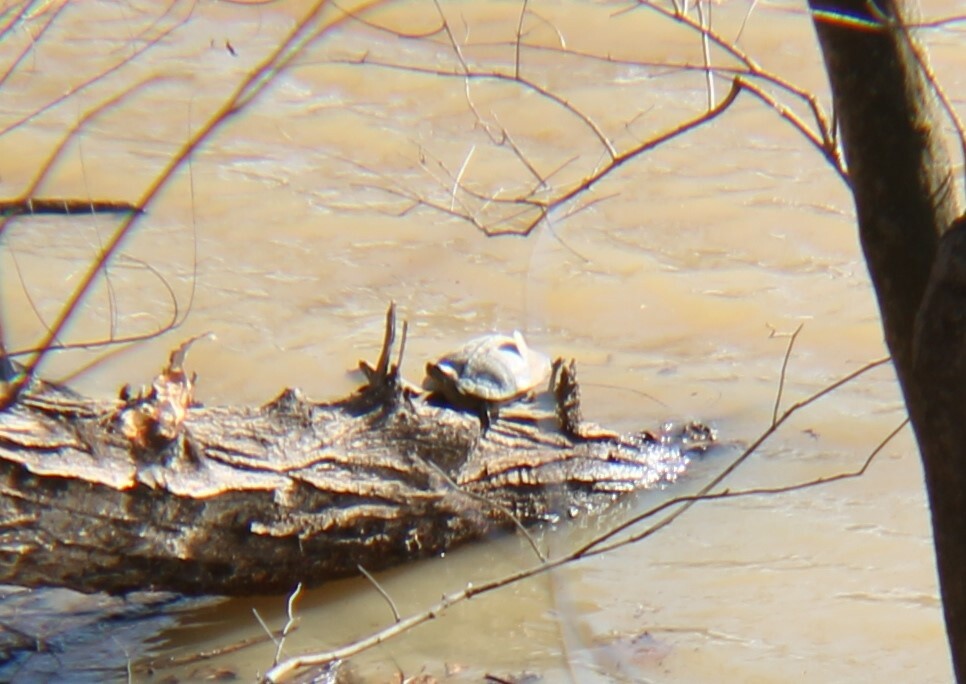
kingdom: Animalia
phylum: Chordata
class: Testudines
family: Emydidae
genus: Trachemys
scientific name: Trachemys scripta
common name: Slider
